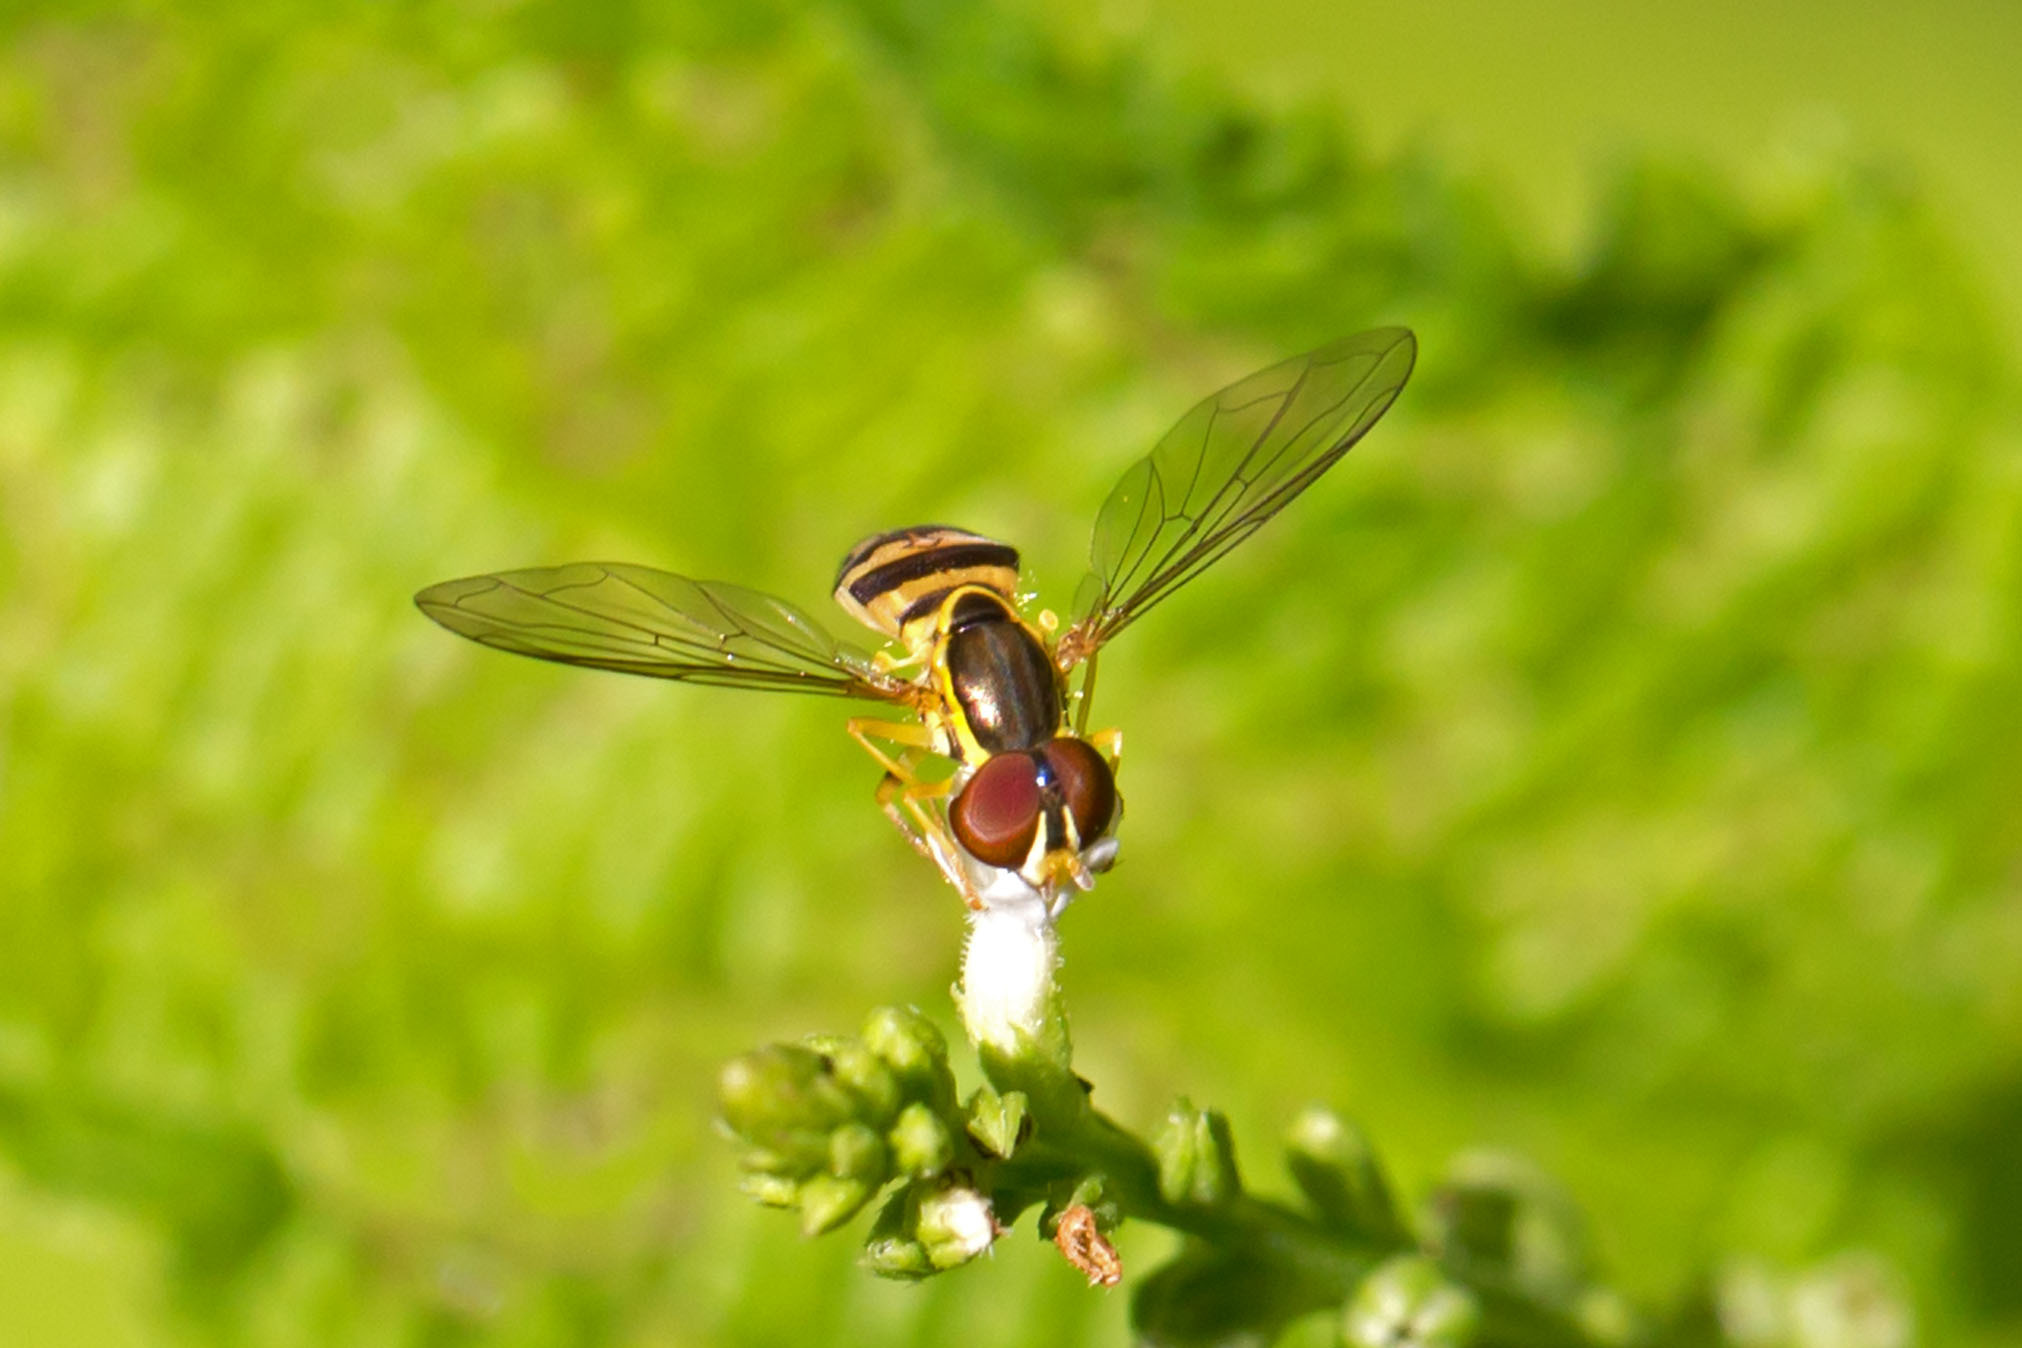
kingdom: Animalia
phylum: Arthropoda
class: Insecta
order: Diptera
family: Syrphidae
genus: Toxomerus
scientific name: Toxomerus geminatus
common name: Eastern calligrapher
